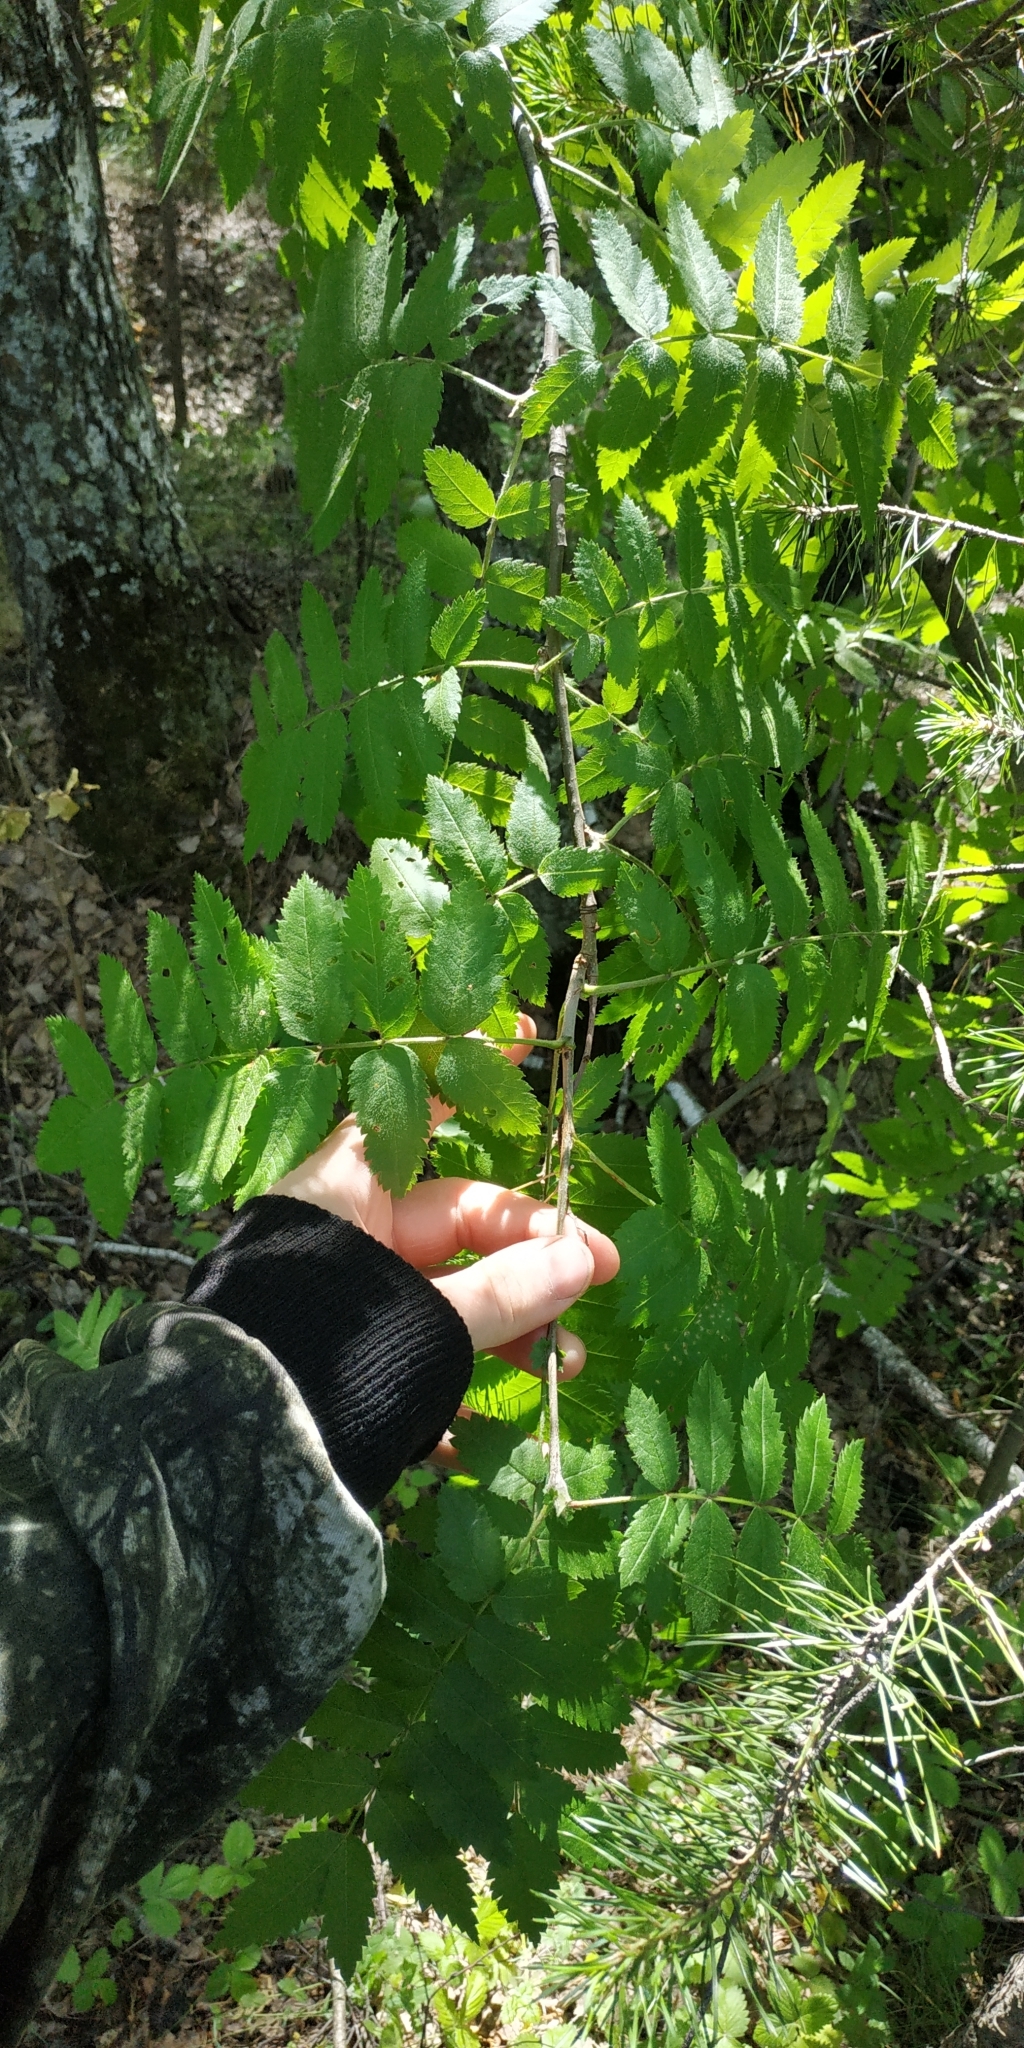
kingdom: Plantae
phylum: Tracheophyta
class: Magnoliopsida
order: Rosales
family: Rosaceae
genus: Sorbus
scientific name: Sorbus aucuparia
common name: Rowan
